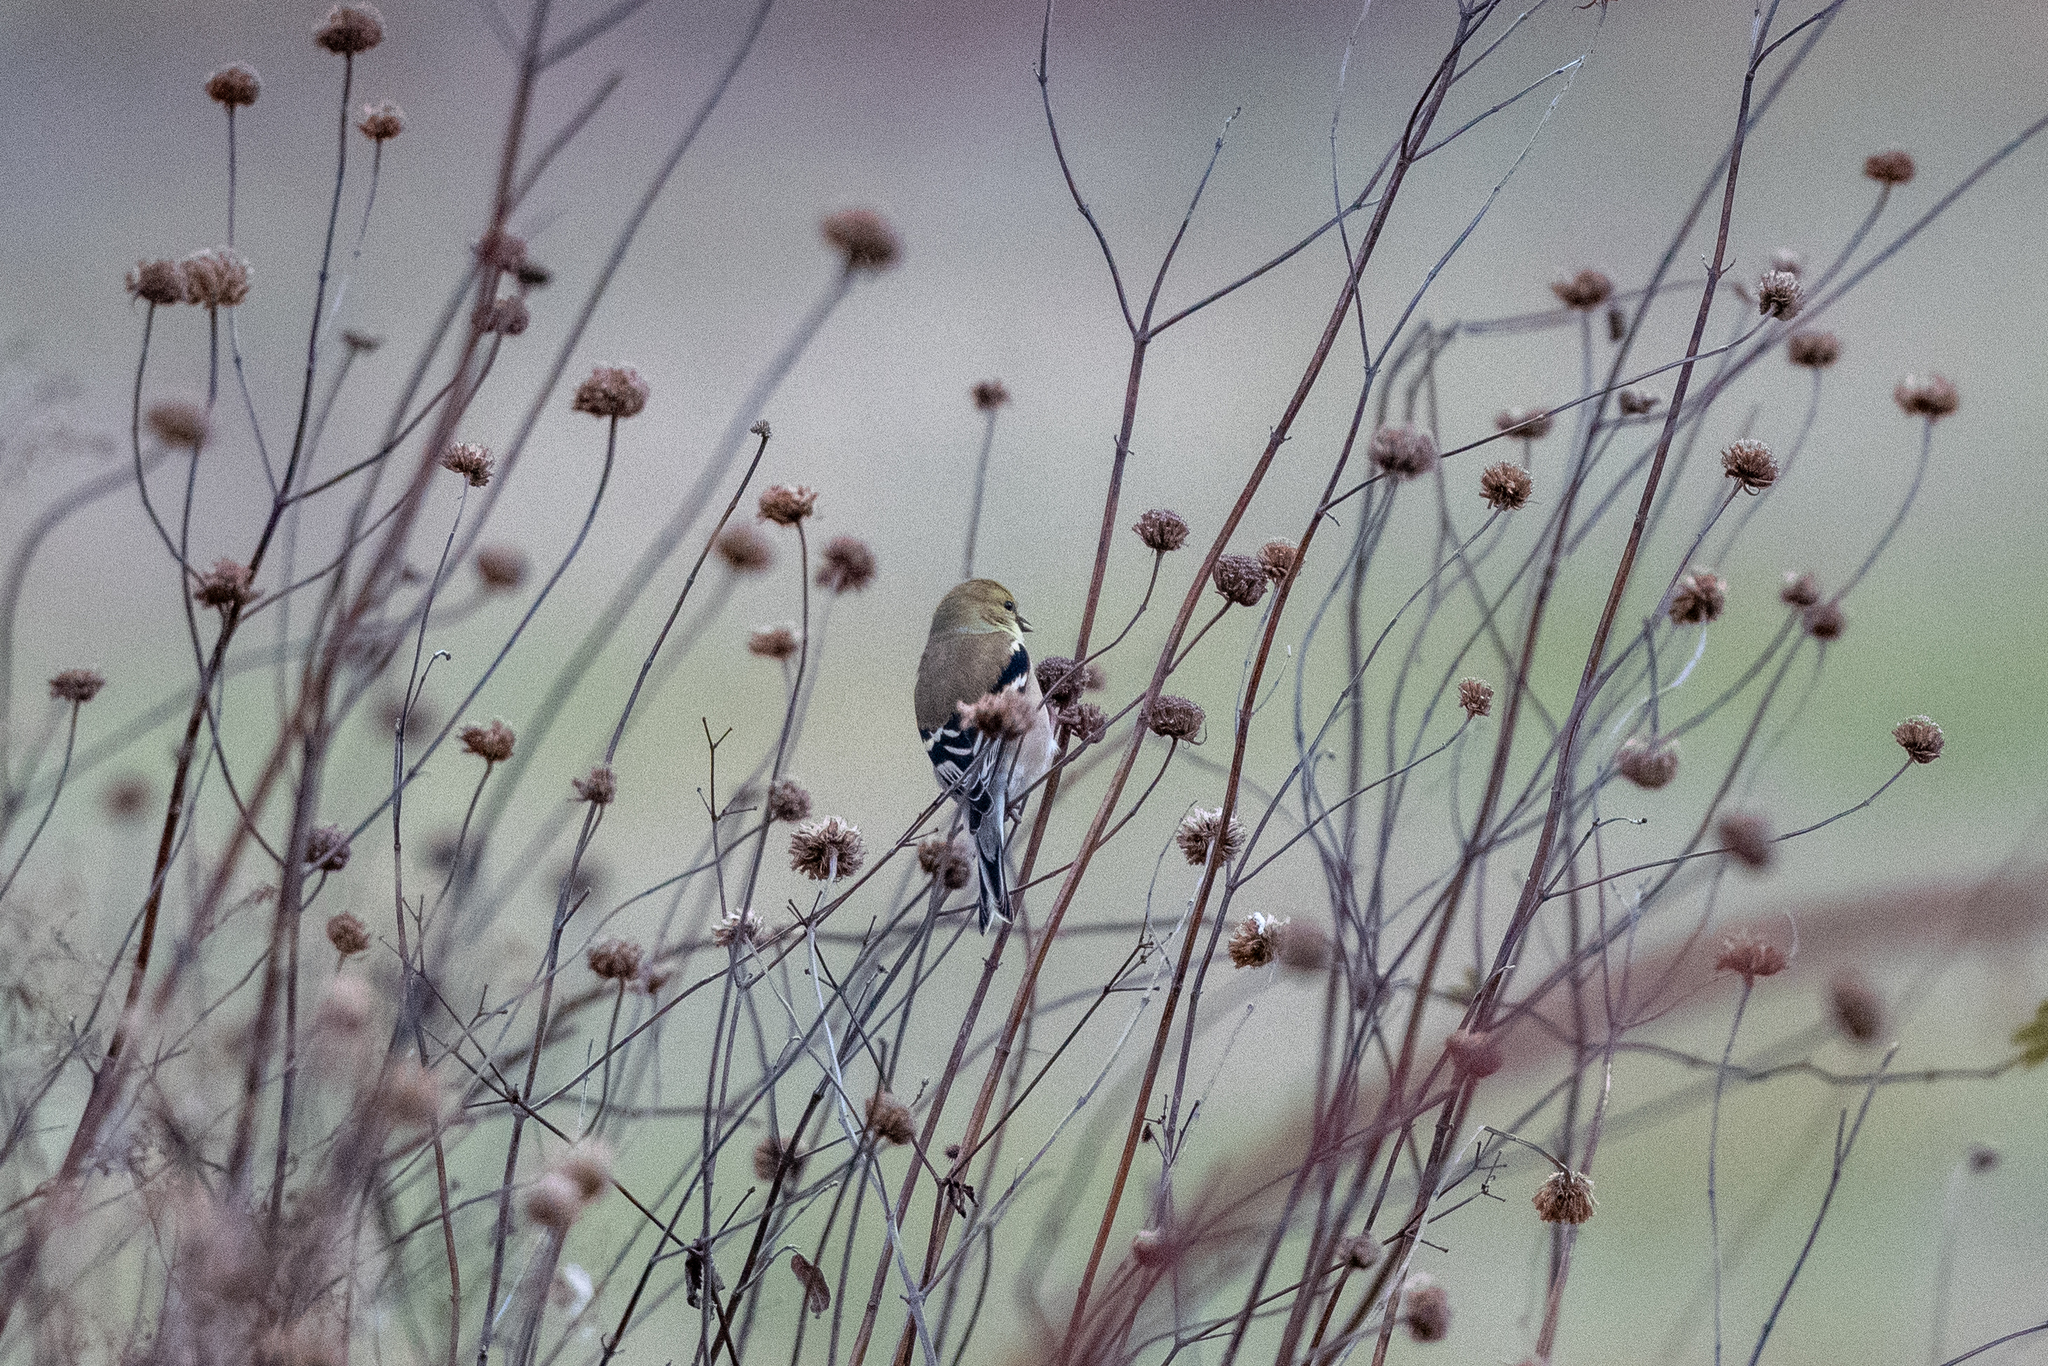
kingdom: Animalia
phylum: Chordata
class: Aves
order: Passeriformes
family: Fringillidae
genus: Spinus
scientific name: Spinus tristis
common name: American goldfinch
